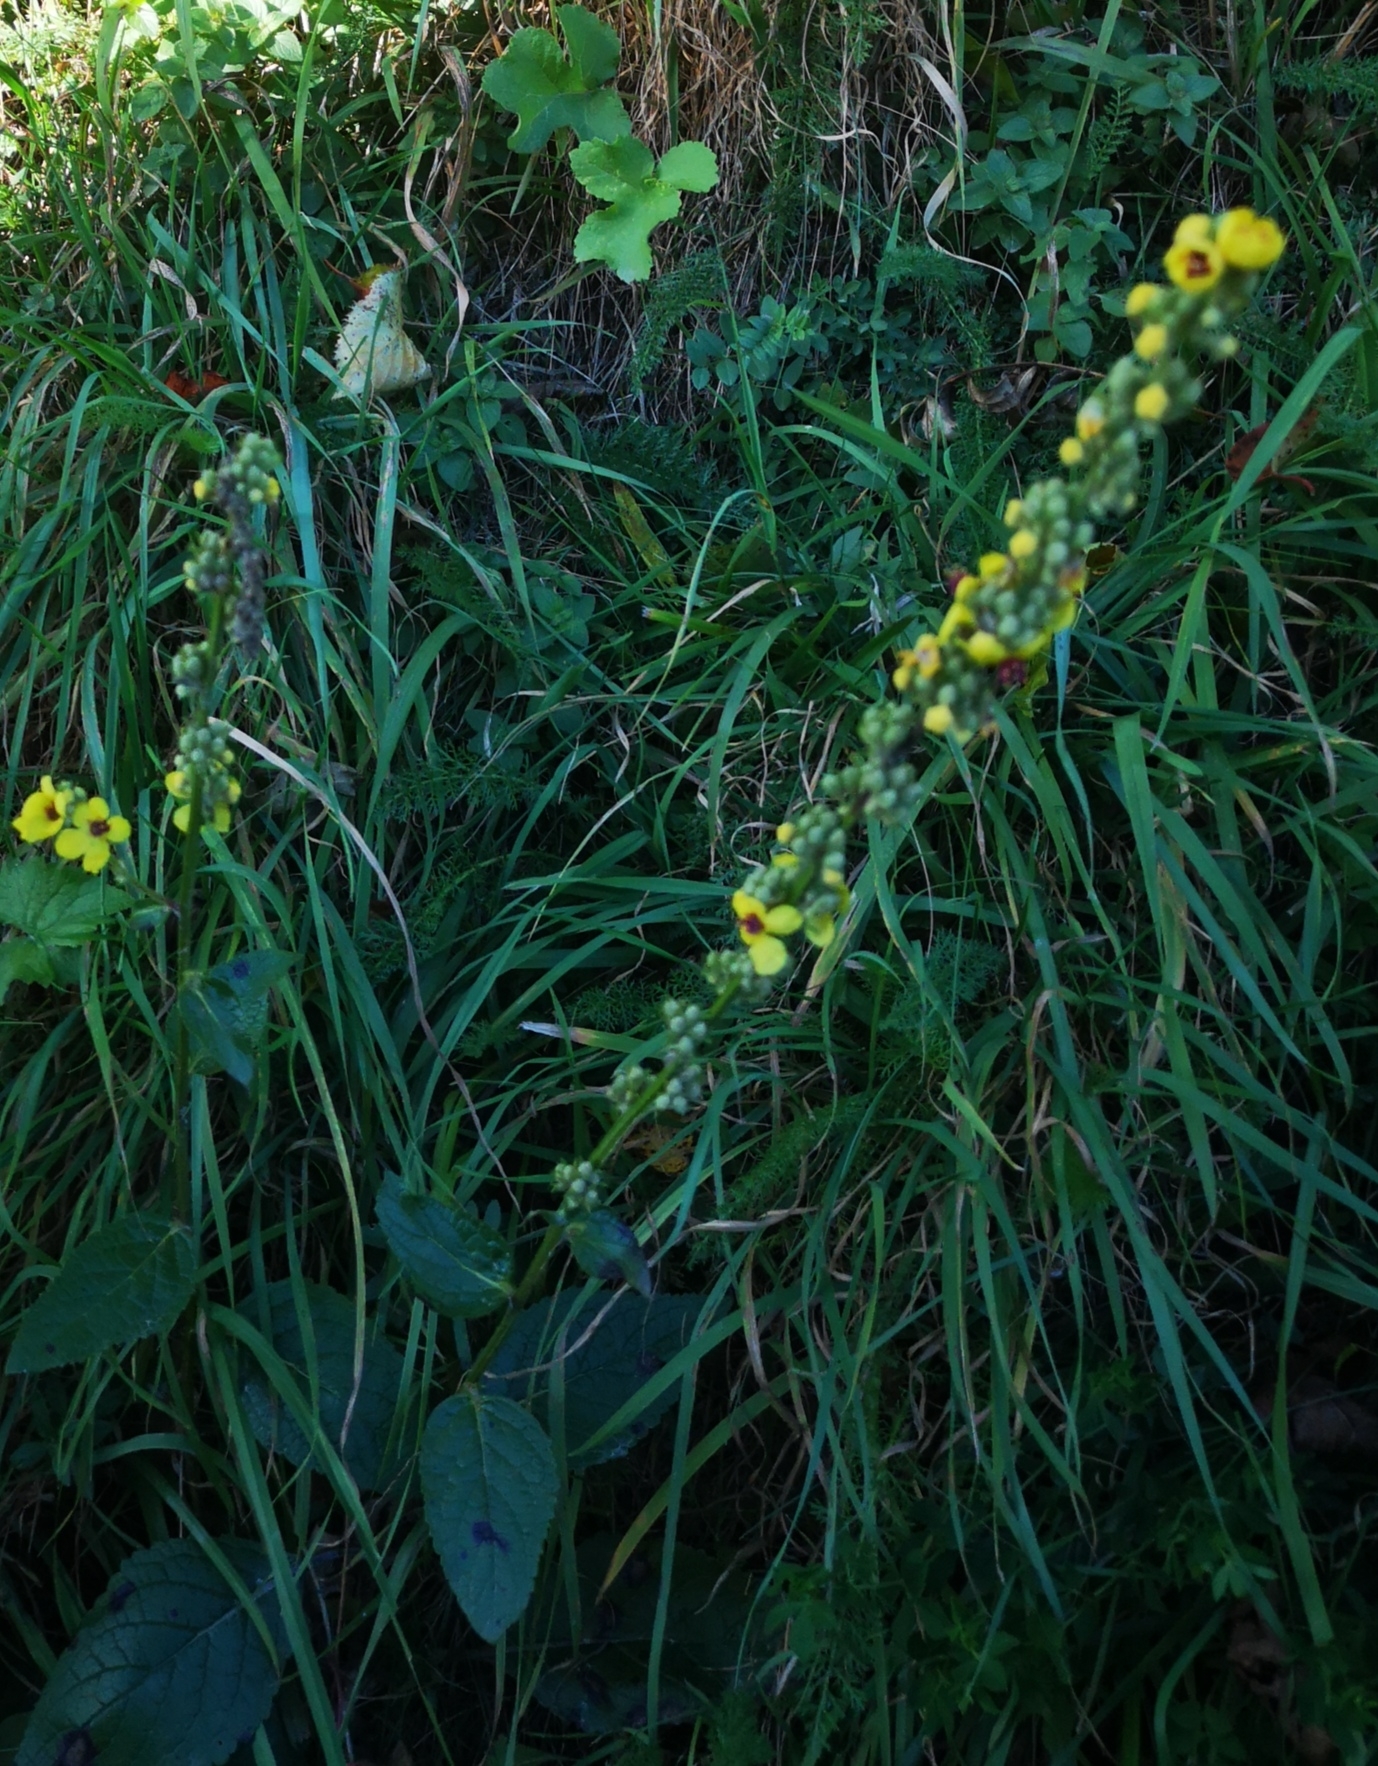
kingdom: Plantae
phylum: Tracheophyta
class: Magnoliopsida
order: Lamiales
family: Scrophulariaceae
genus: Verbascum
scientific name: Verbascum nigrum
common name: Dark mullein
